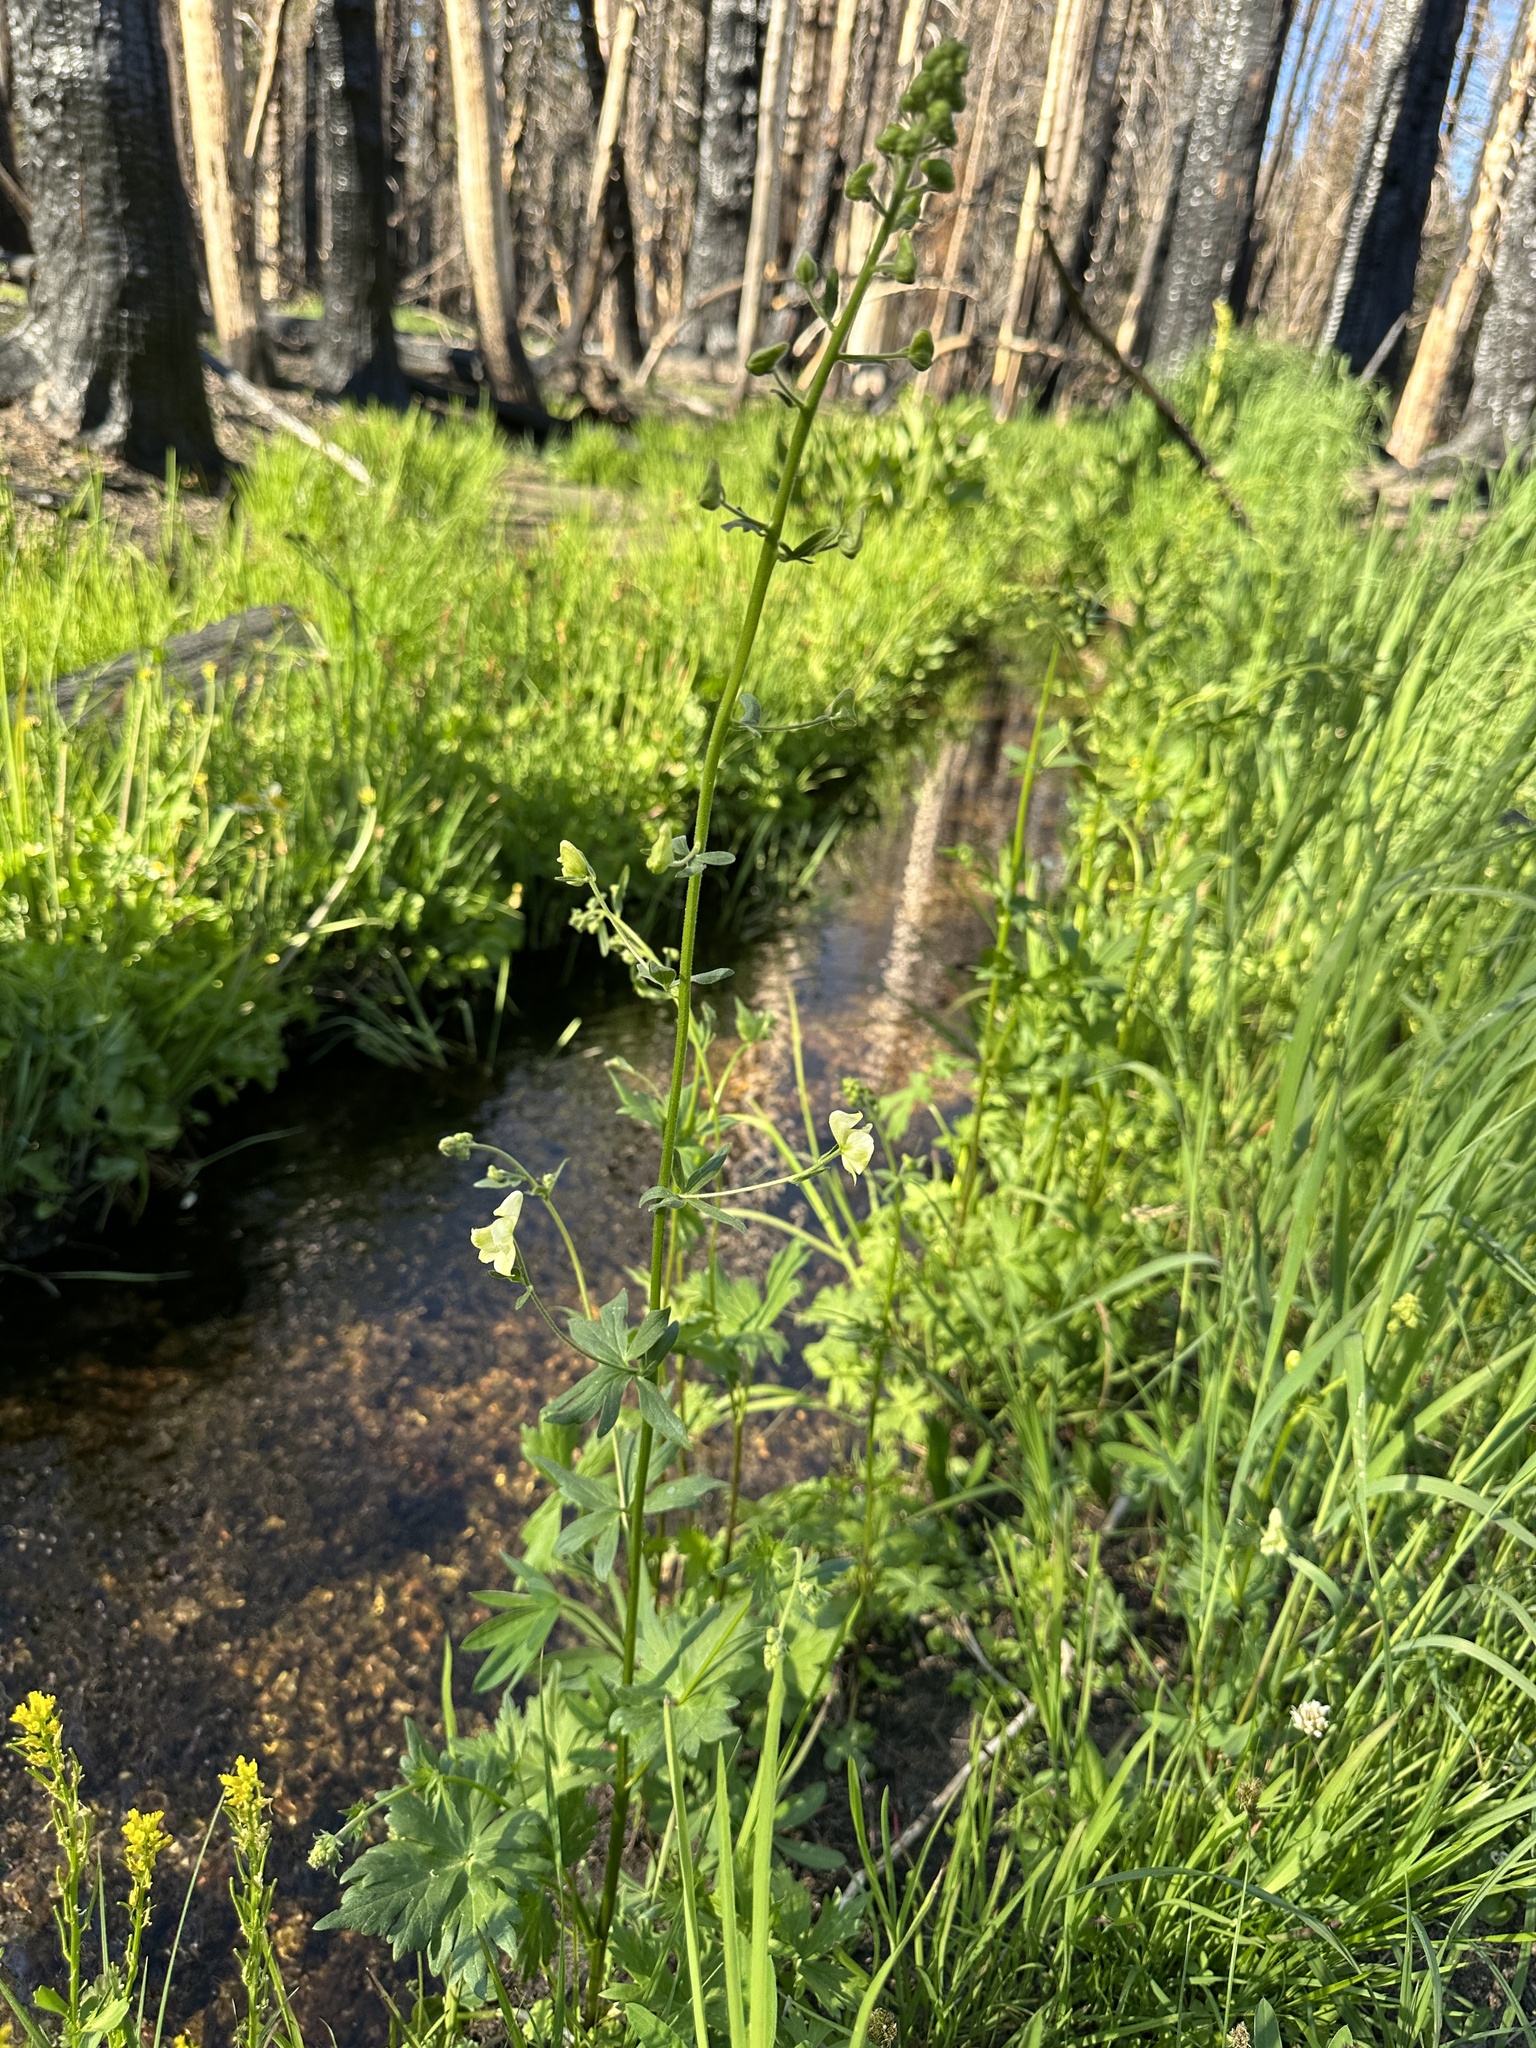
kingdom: Plantae
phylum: Tracheophyta
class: Magnoliopsida
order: Ranunculales
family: Ranunculaceae
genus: Aconitum
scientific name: Aconitum columbianum
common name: Columbia aconite
